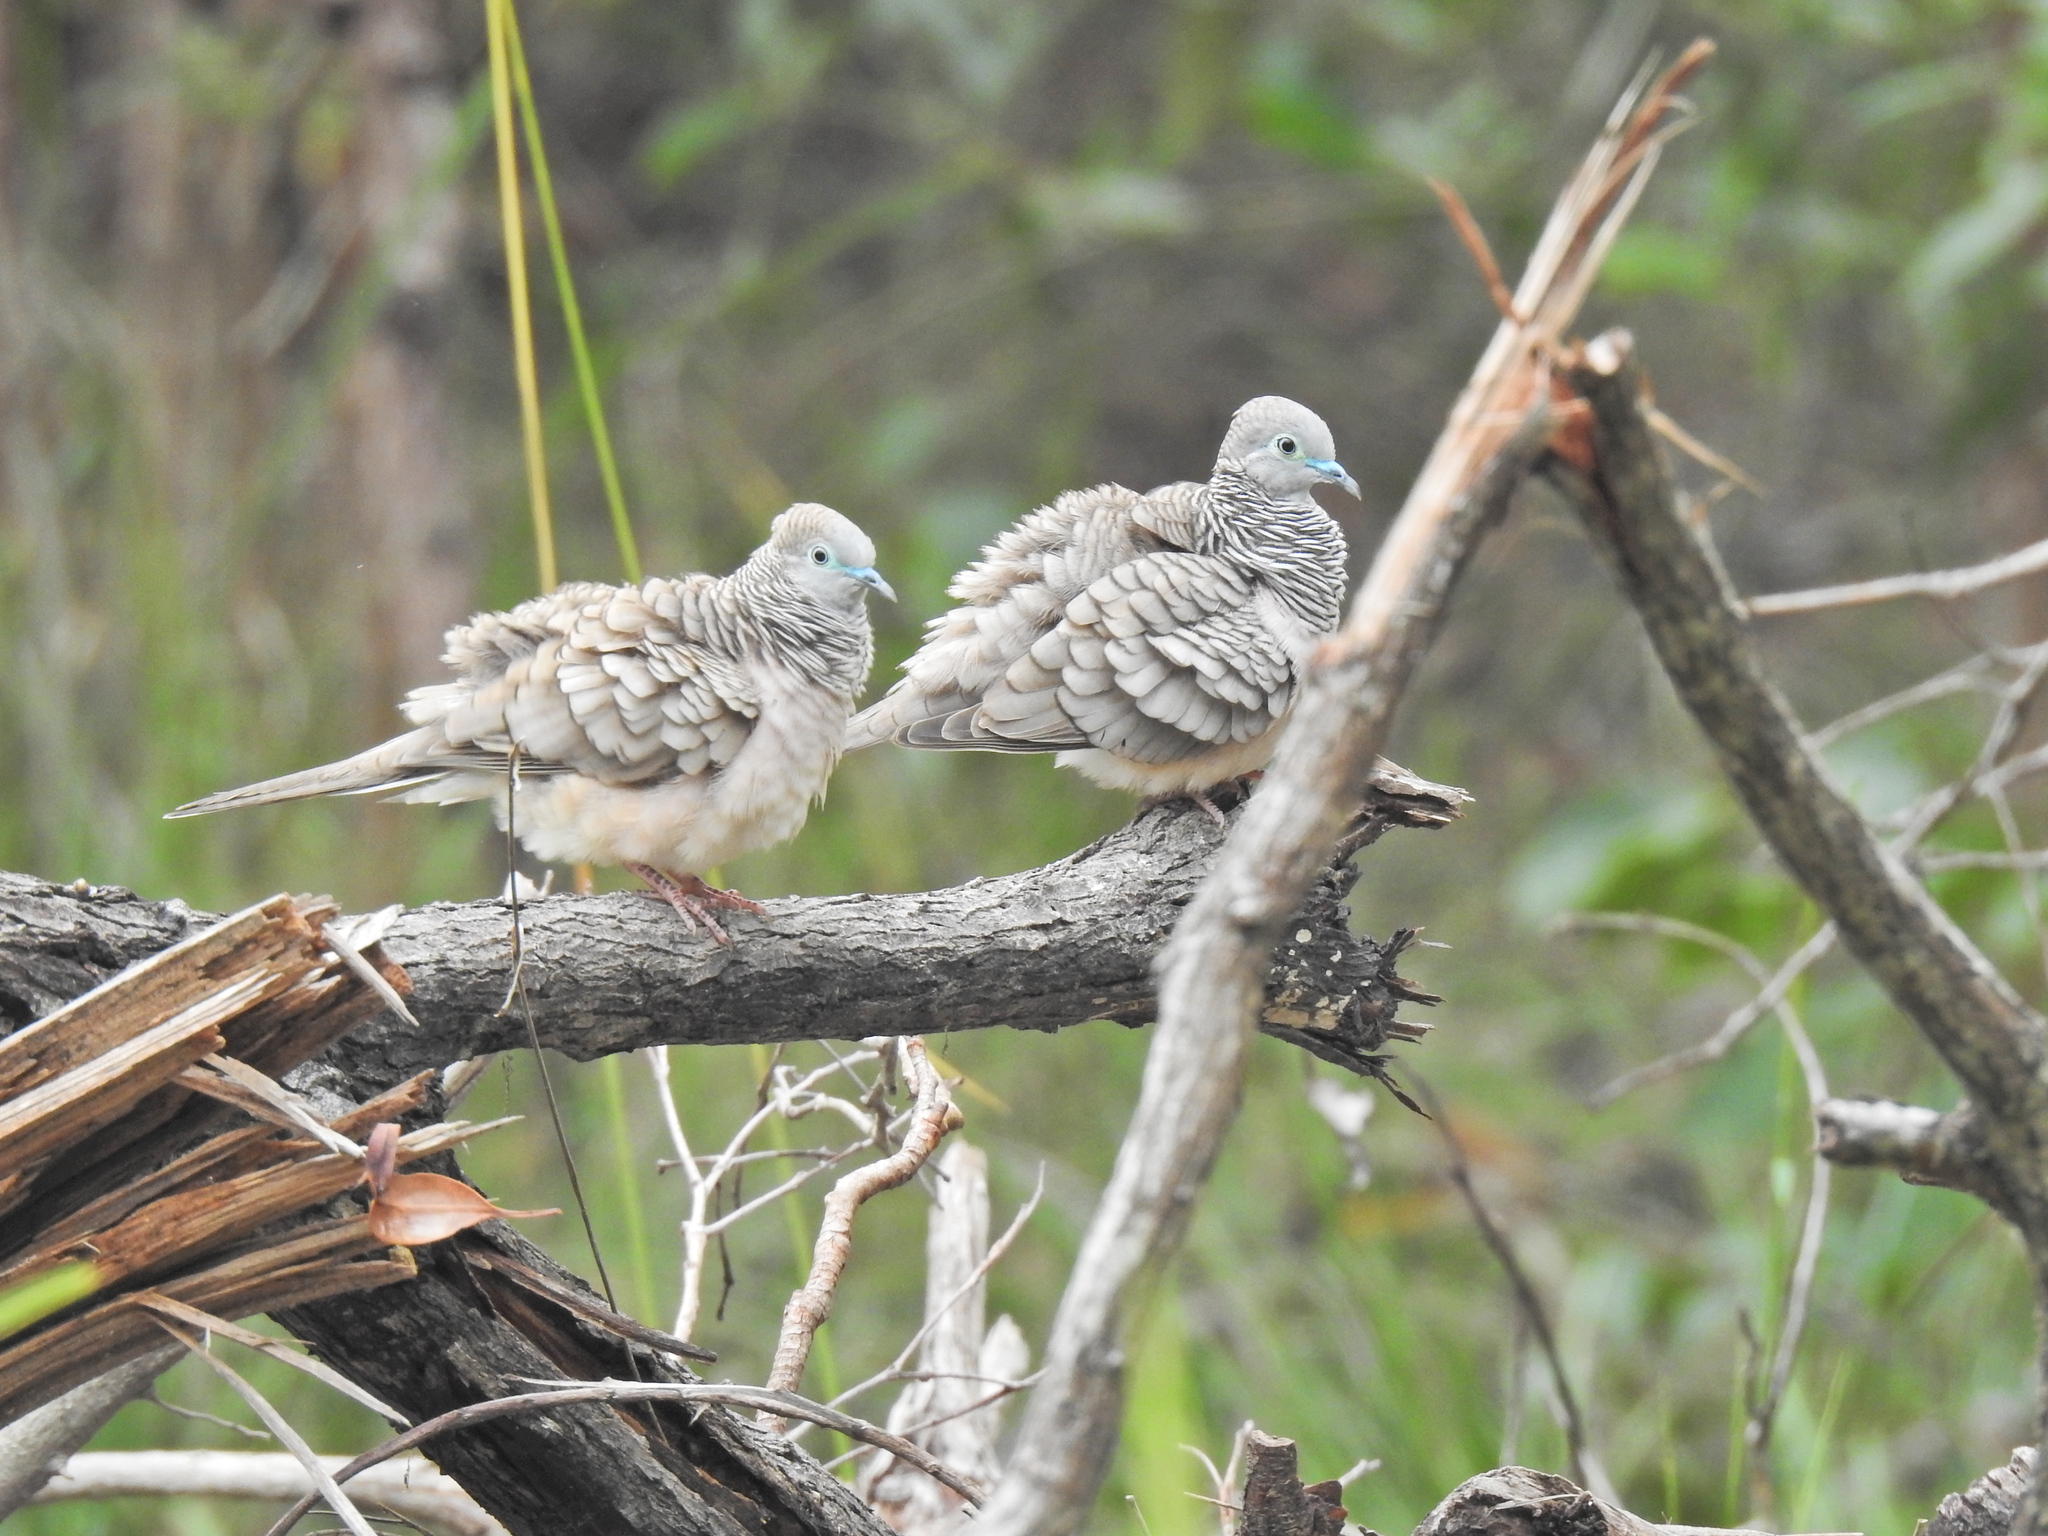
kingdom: Animalia
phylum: Chordata
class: Aves
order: Columbiformes
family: Columbidae
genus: Geopelia
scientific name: Geopelia placida
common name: Peaceful dove
